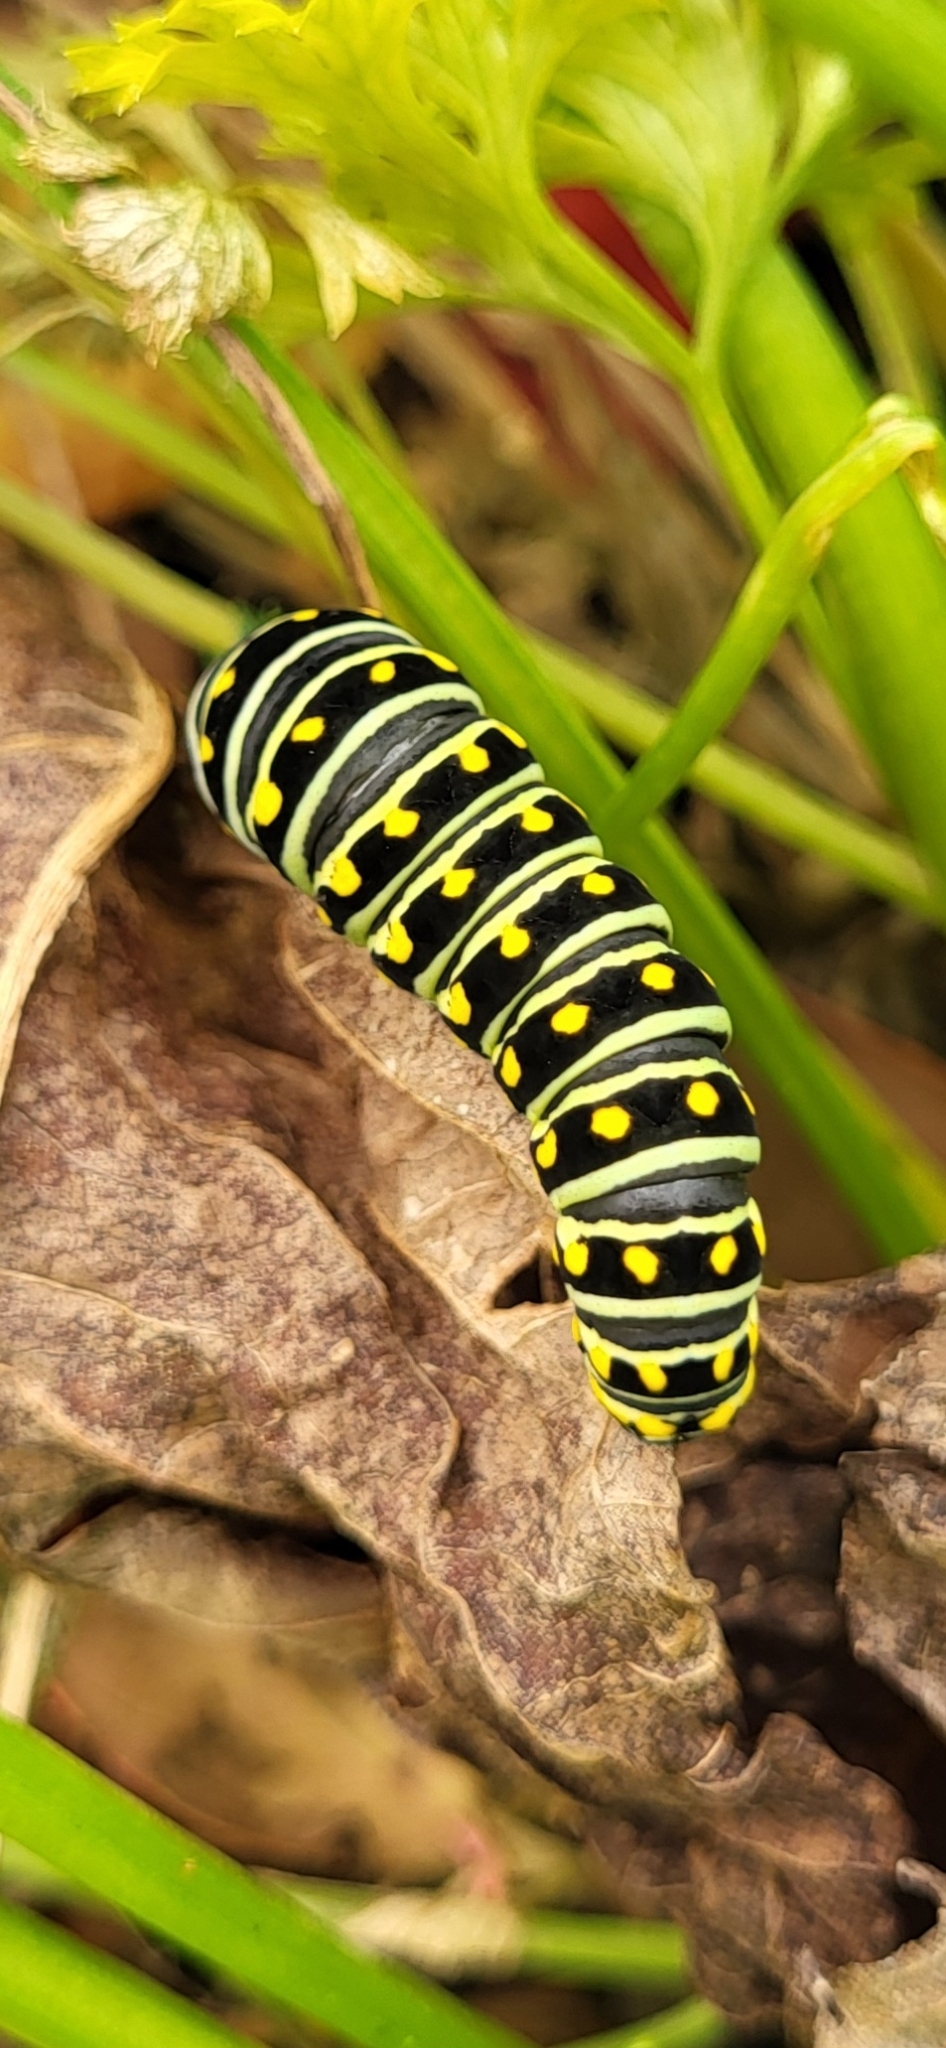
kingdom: Animalia
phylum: Arthropoda
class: Insecta
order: Lepidoptera
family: Papilionidae
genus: Papilio
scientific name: Papilio polyxenes
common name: Black swallowtail
